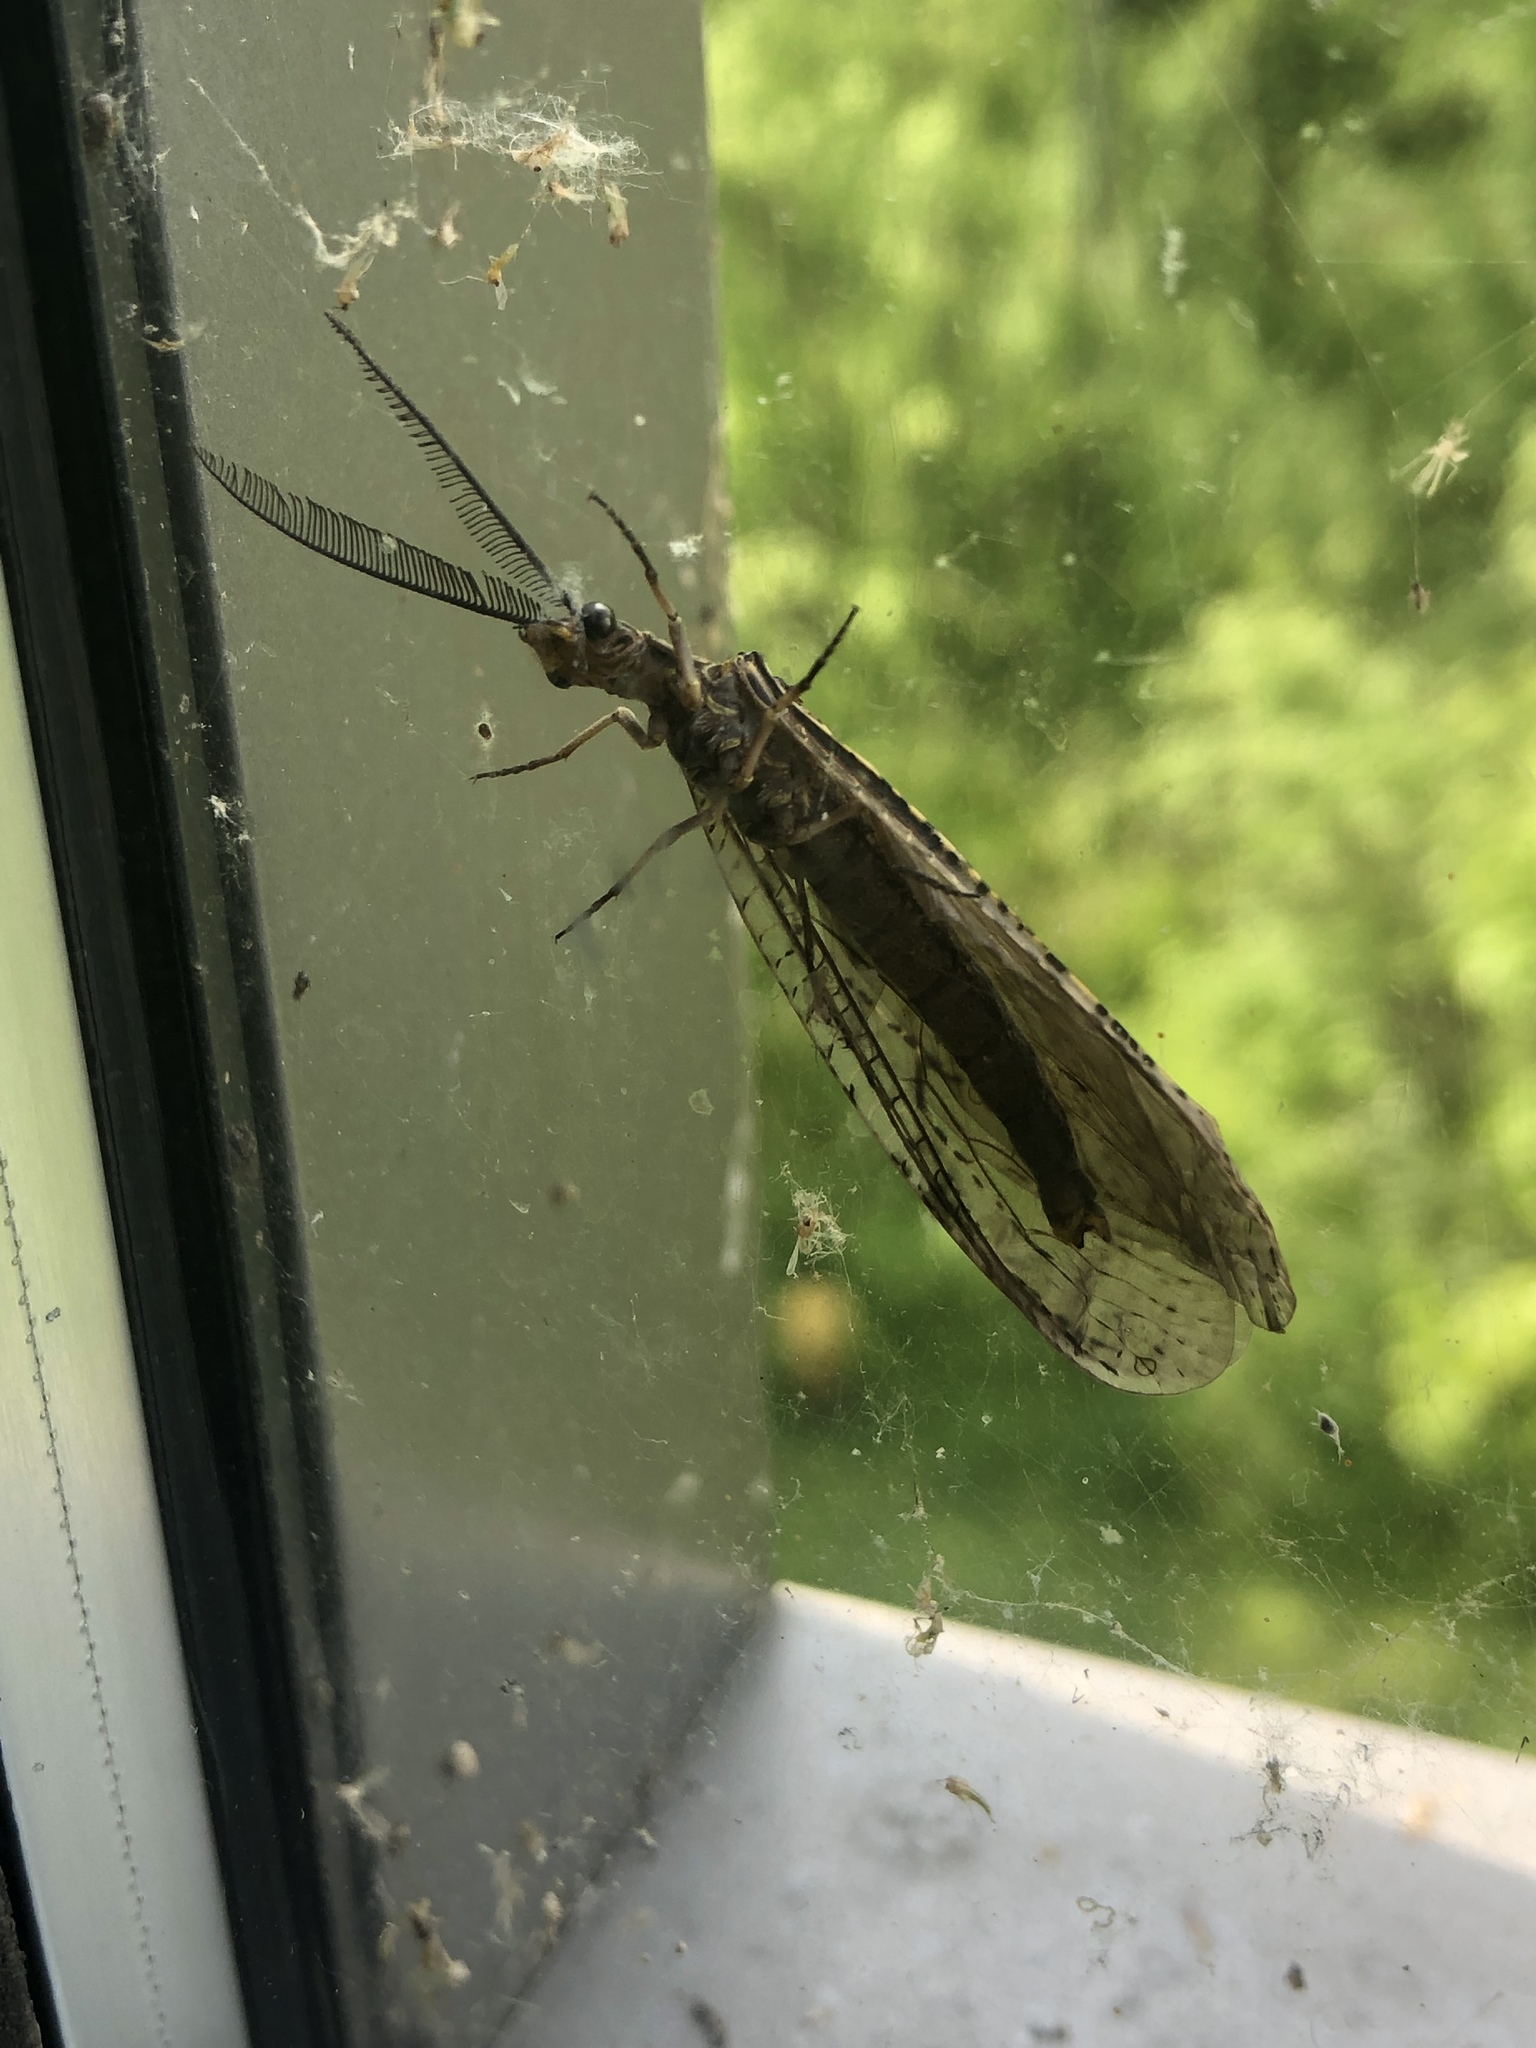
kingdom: Animalia
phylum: Arthropoda
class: Insecta
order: Megaloptera
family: Corydalidae
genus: Chauliodes
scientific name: Chauliodes rastricornis
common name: Spring fishfly
